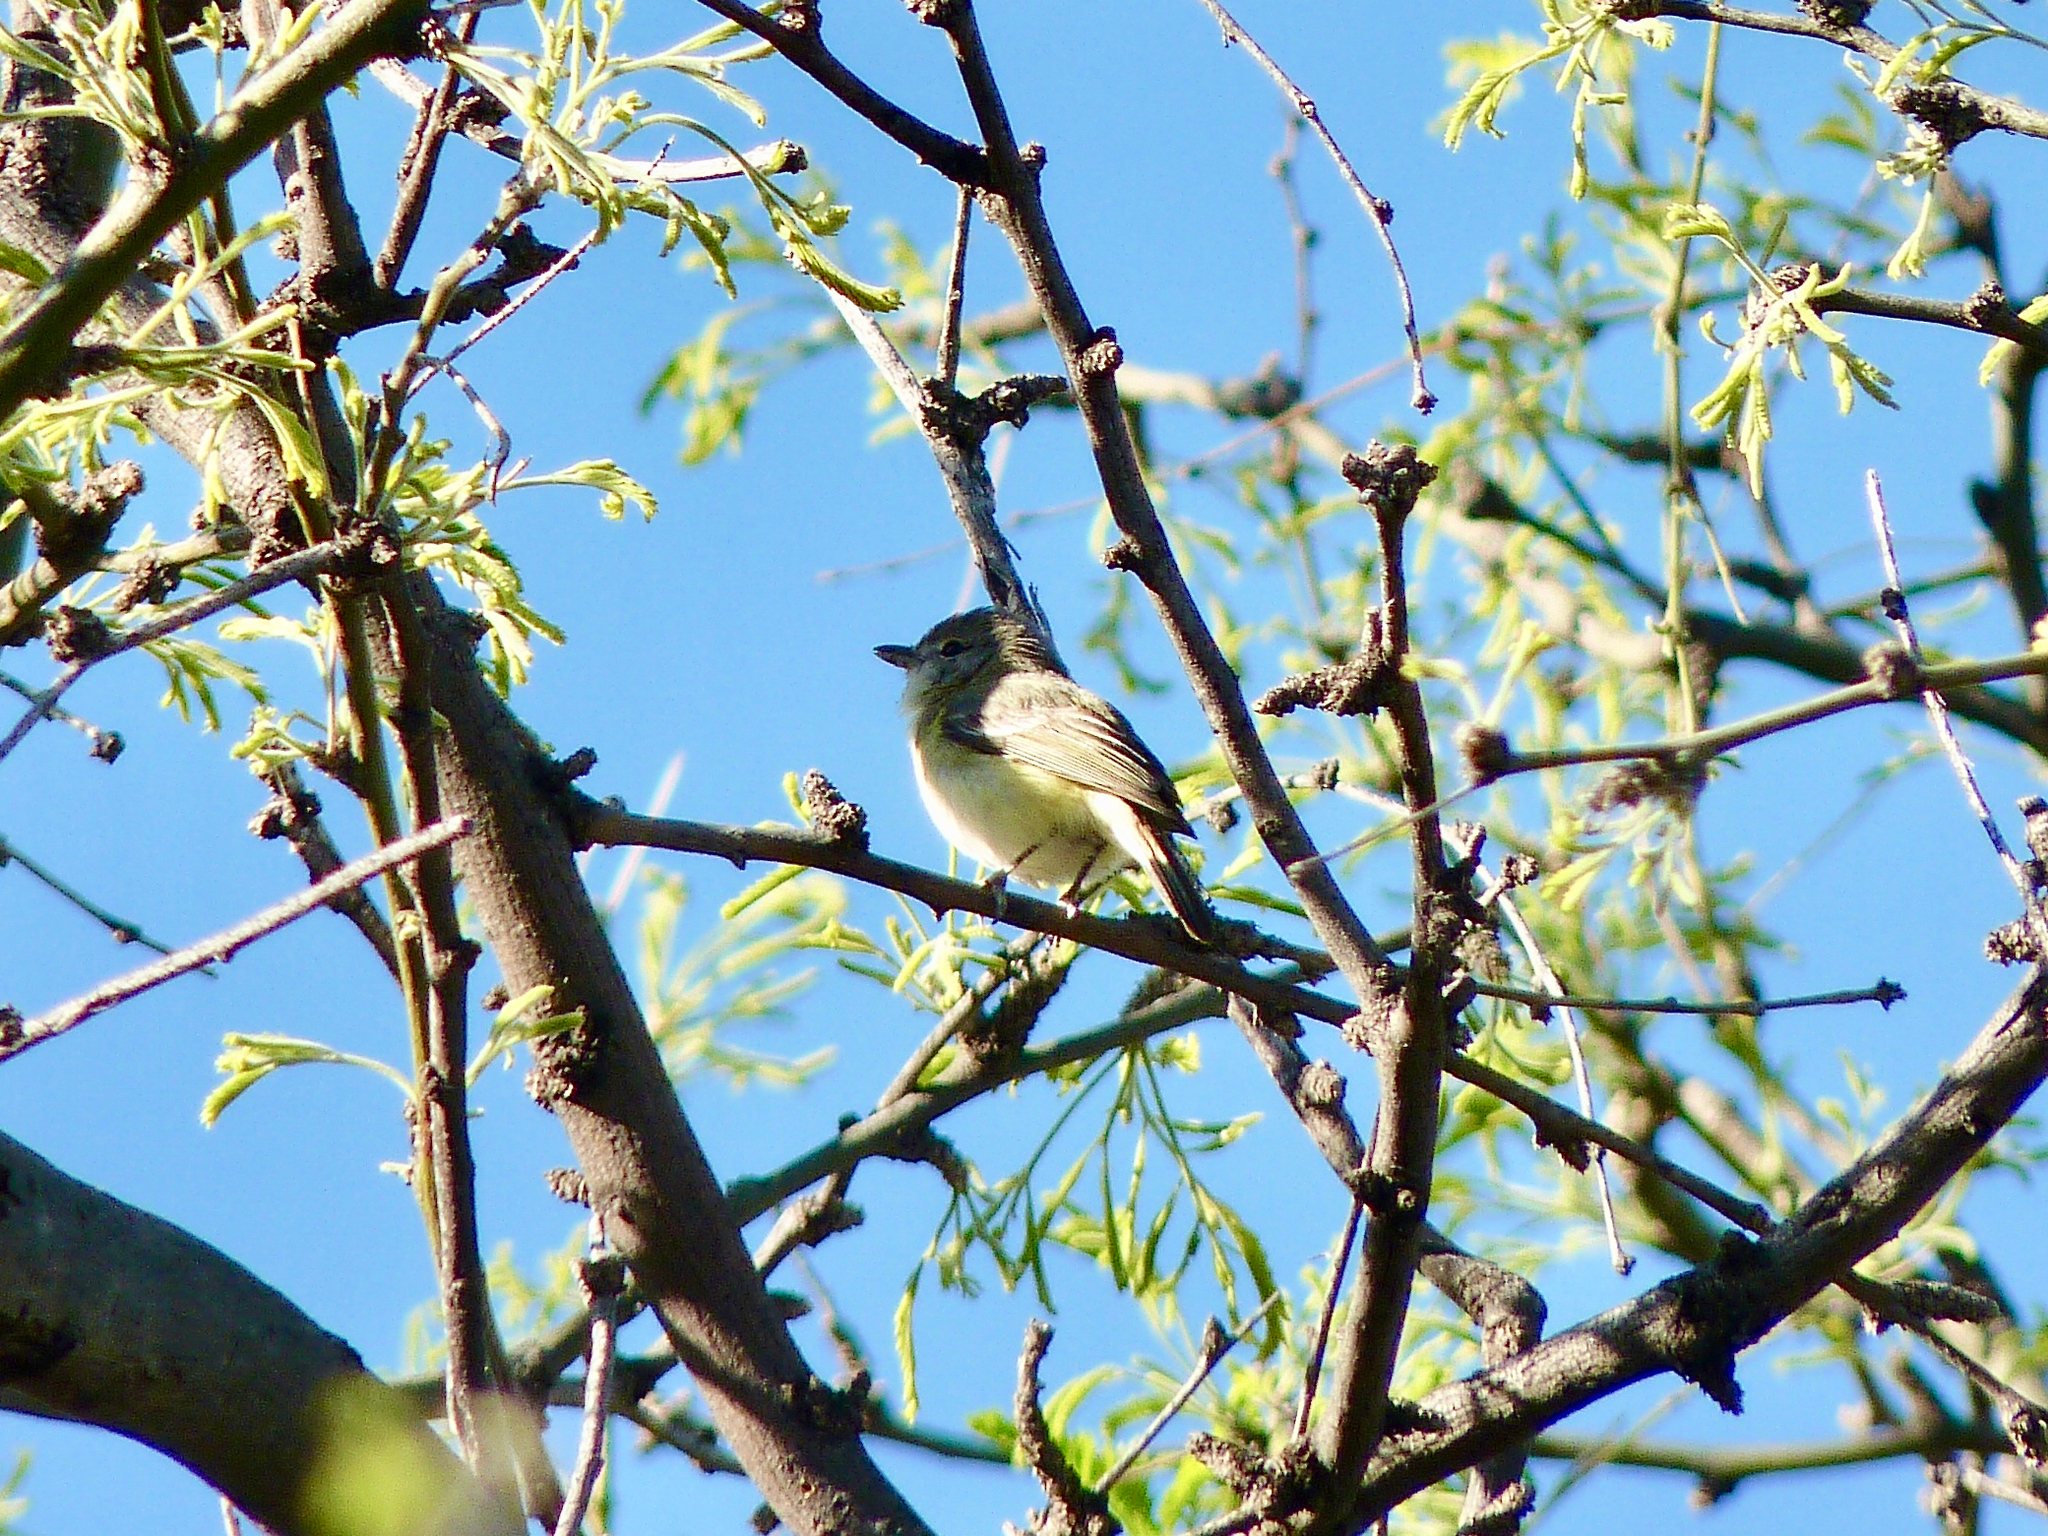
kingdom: Animalia
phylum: Chordata
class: Aves
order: Passeriformes
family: Vireonidae
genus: Vireo
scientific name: Vireo bellii
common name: Bell's vireo
